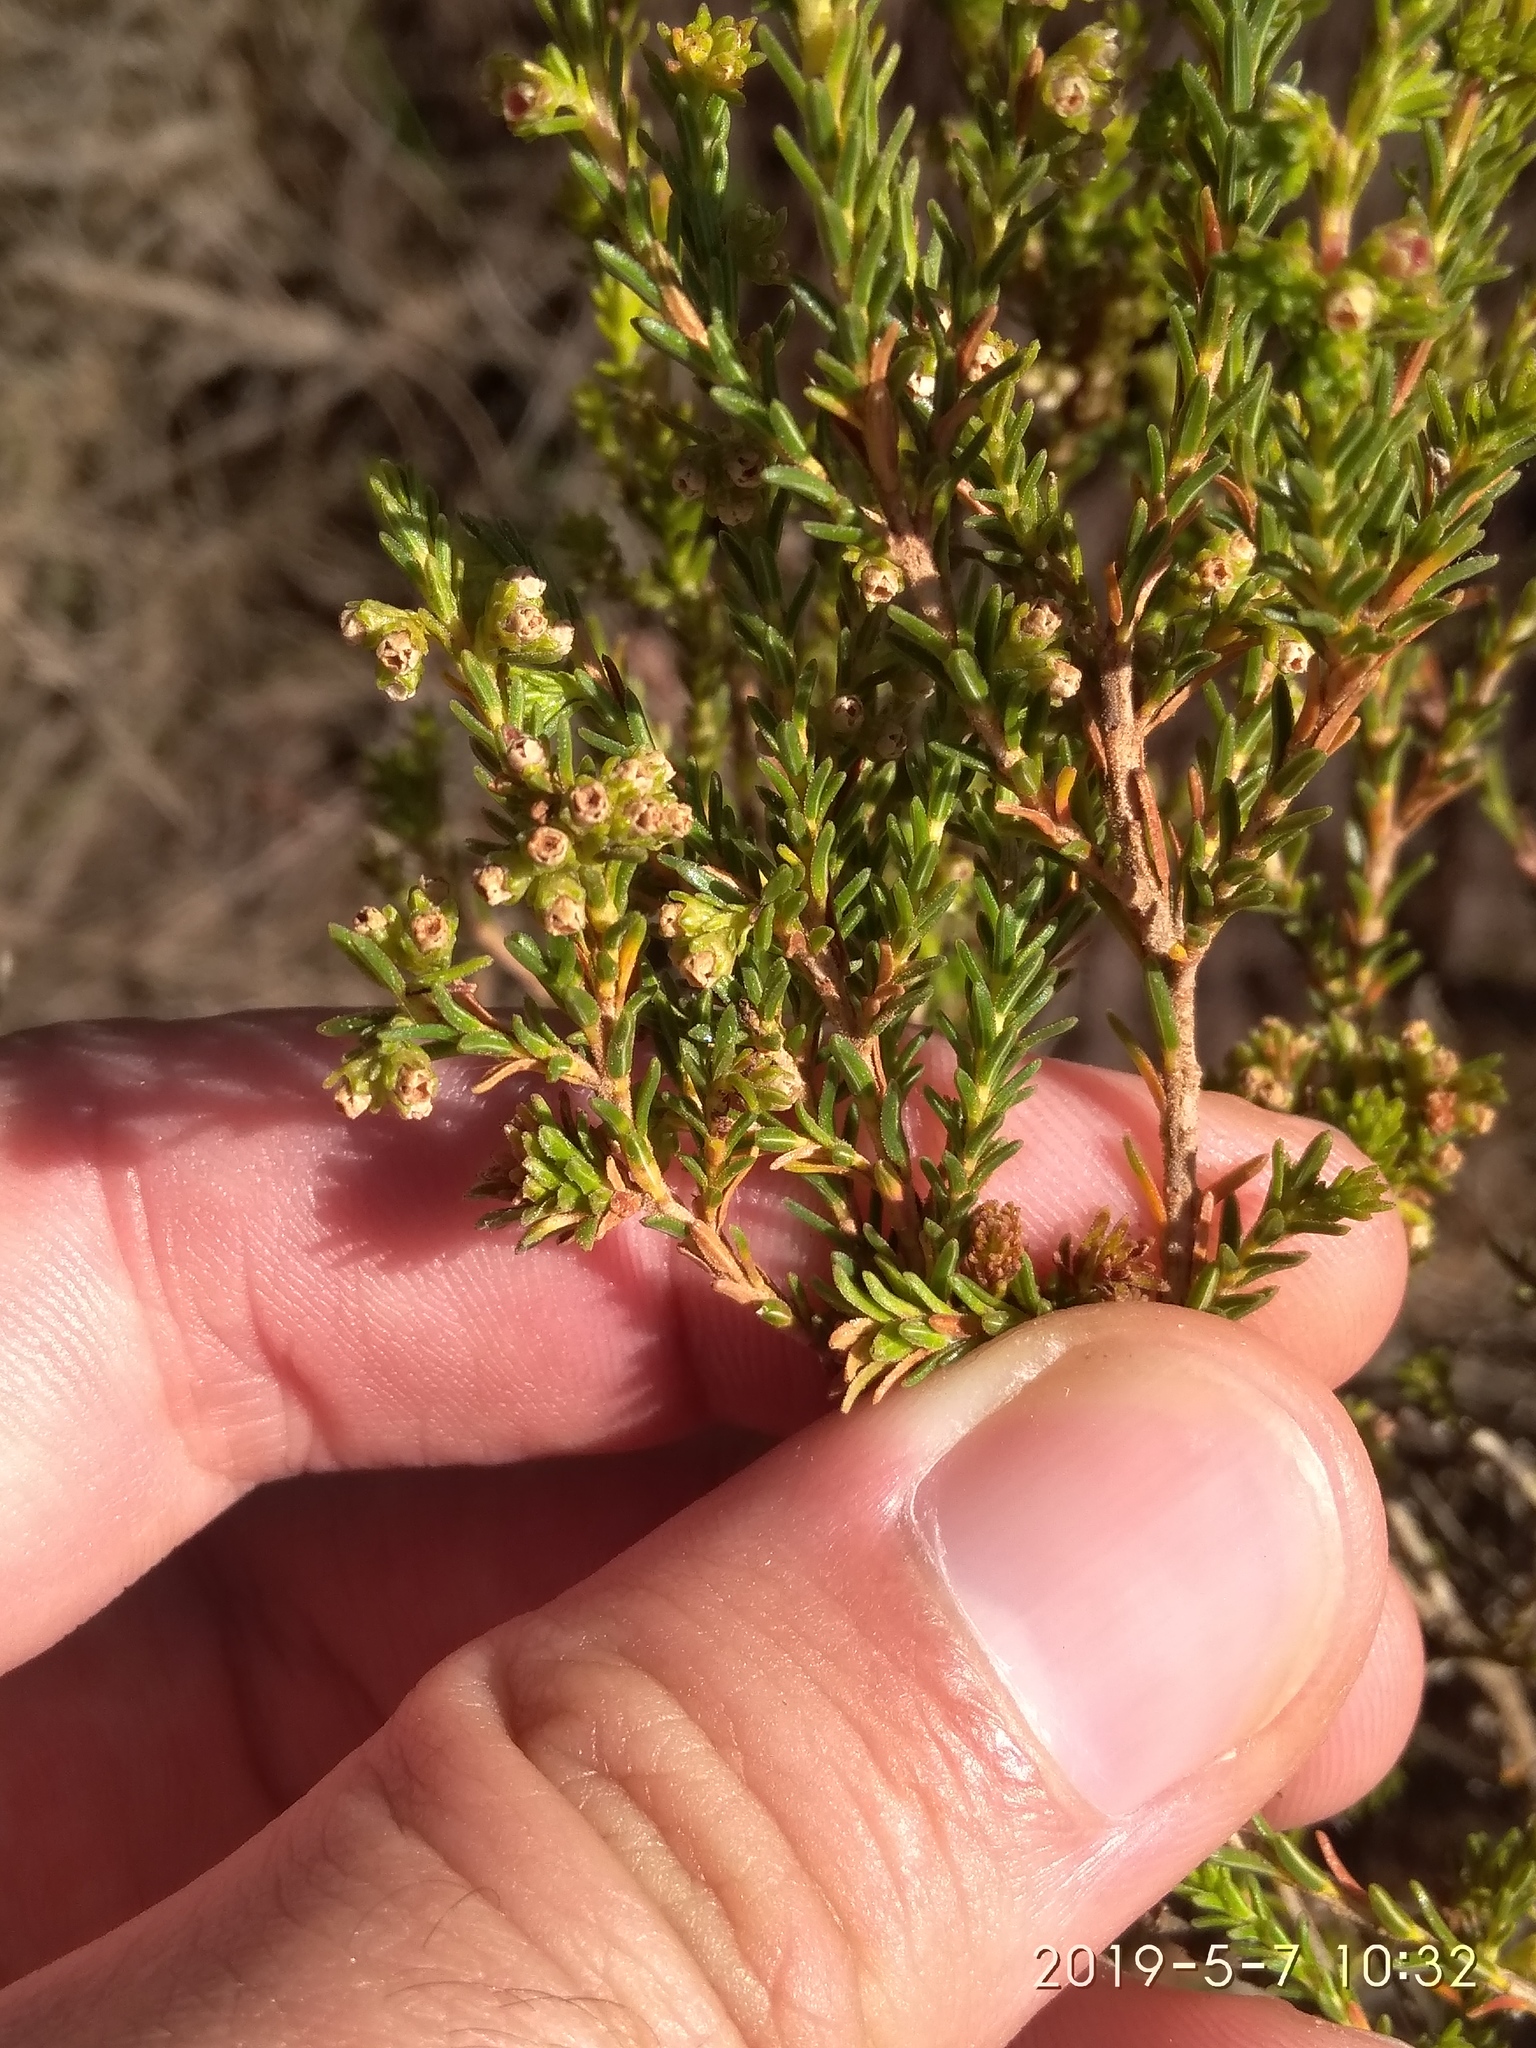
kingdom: Plantae
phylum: Tracheophyta
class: Magnoliopsida
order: Ericales
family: Ericaceae
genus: Erica
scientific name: Erica axillaris
